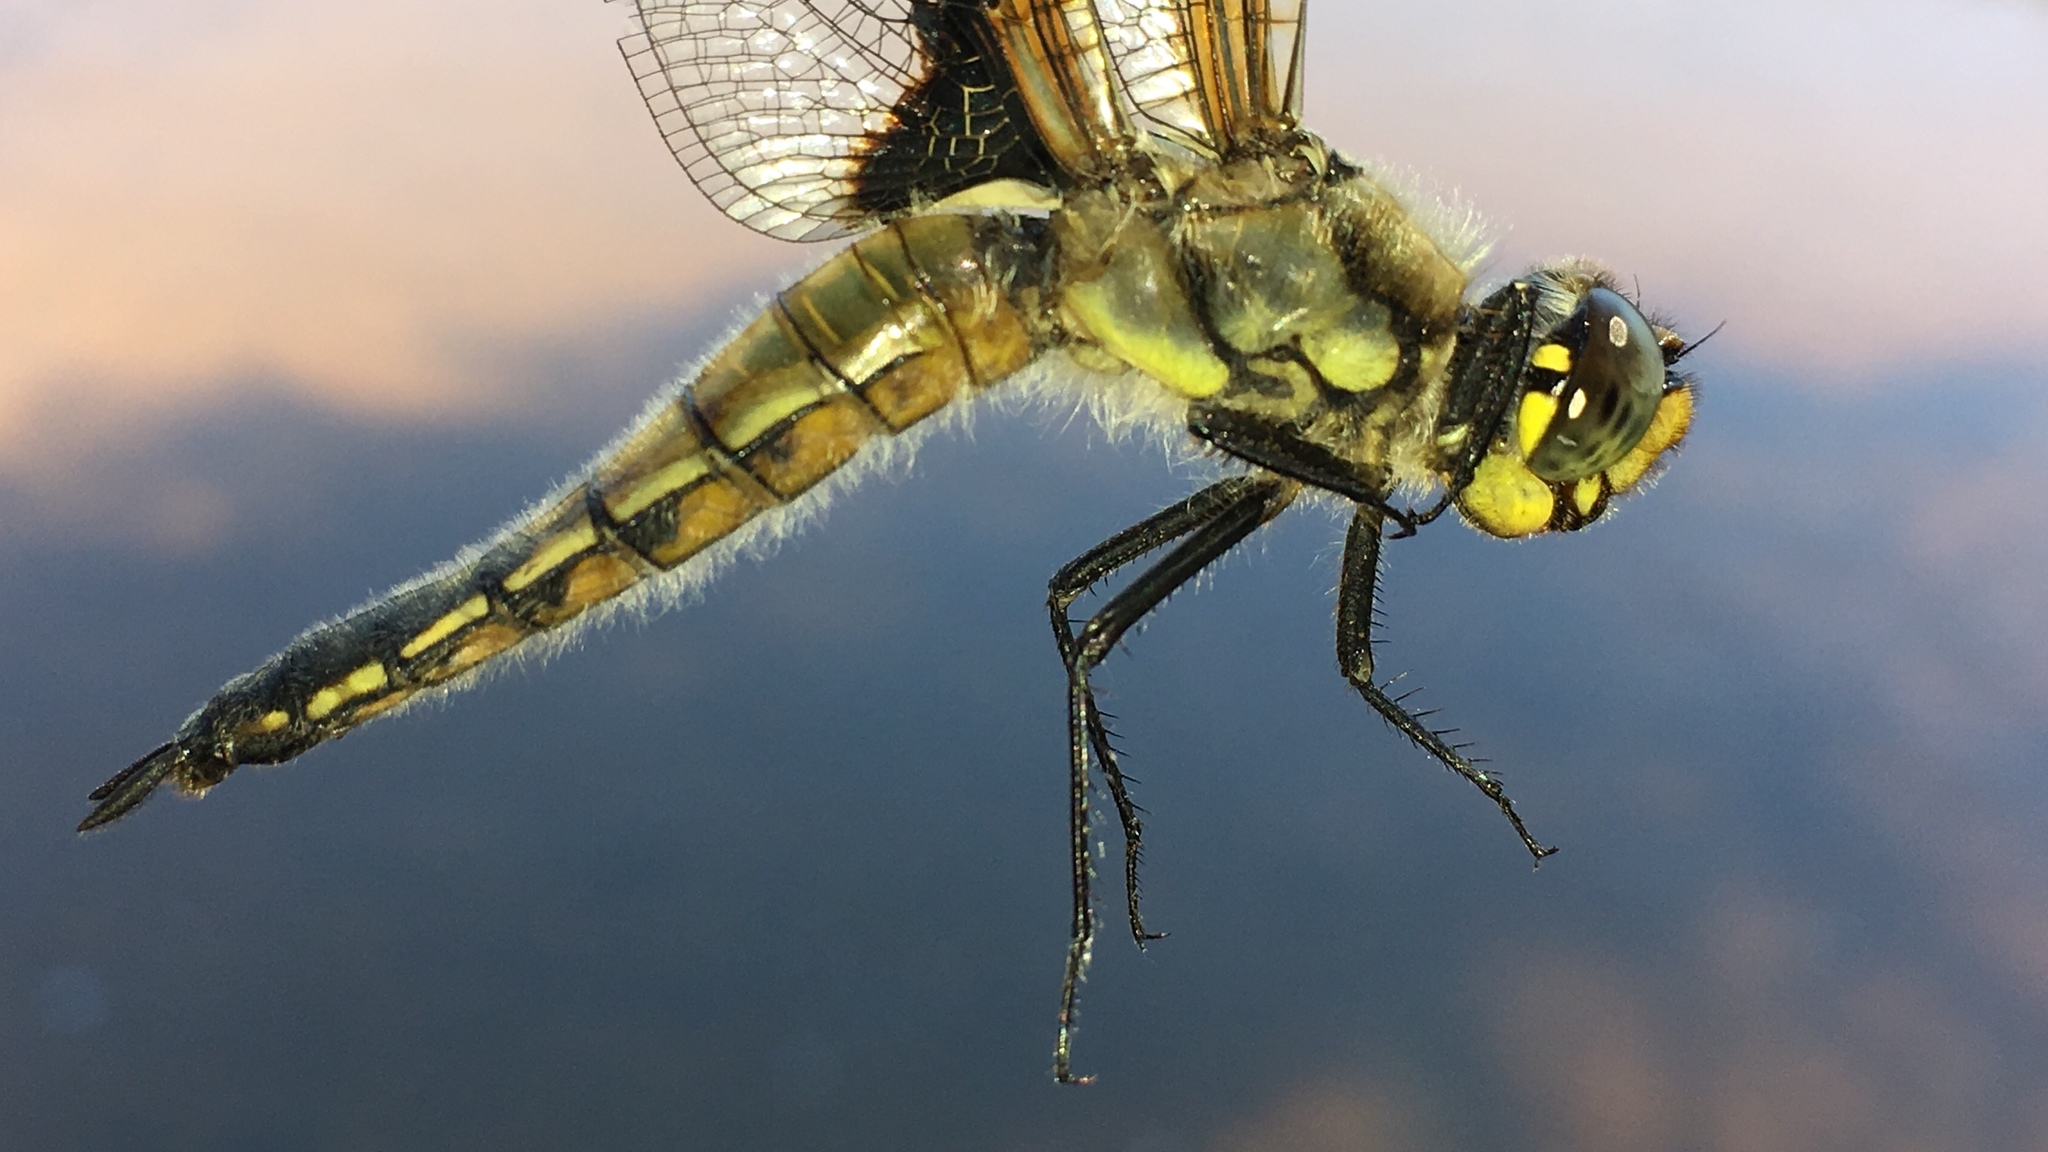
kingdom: Animalia
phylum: Arthropoda
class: Insecta
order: Odonata
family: Libellulidae
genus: Libellula
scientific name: Libellula quadrimaculata
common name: Four-spotted chaser
